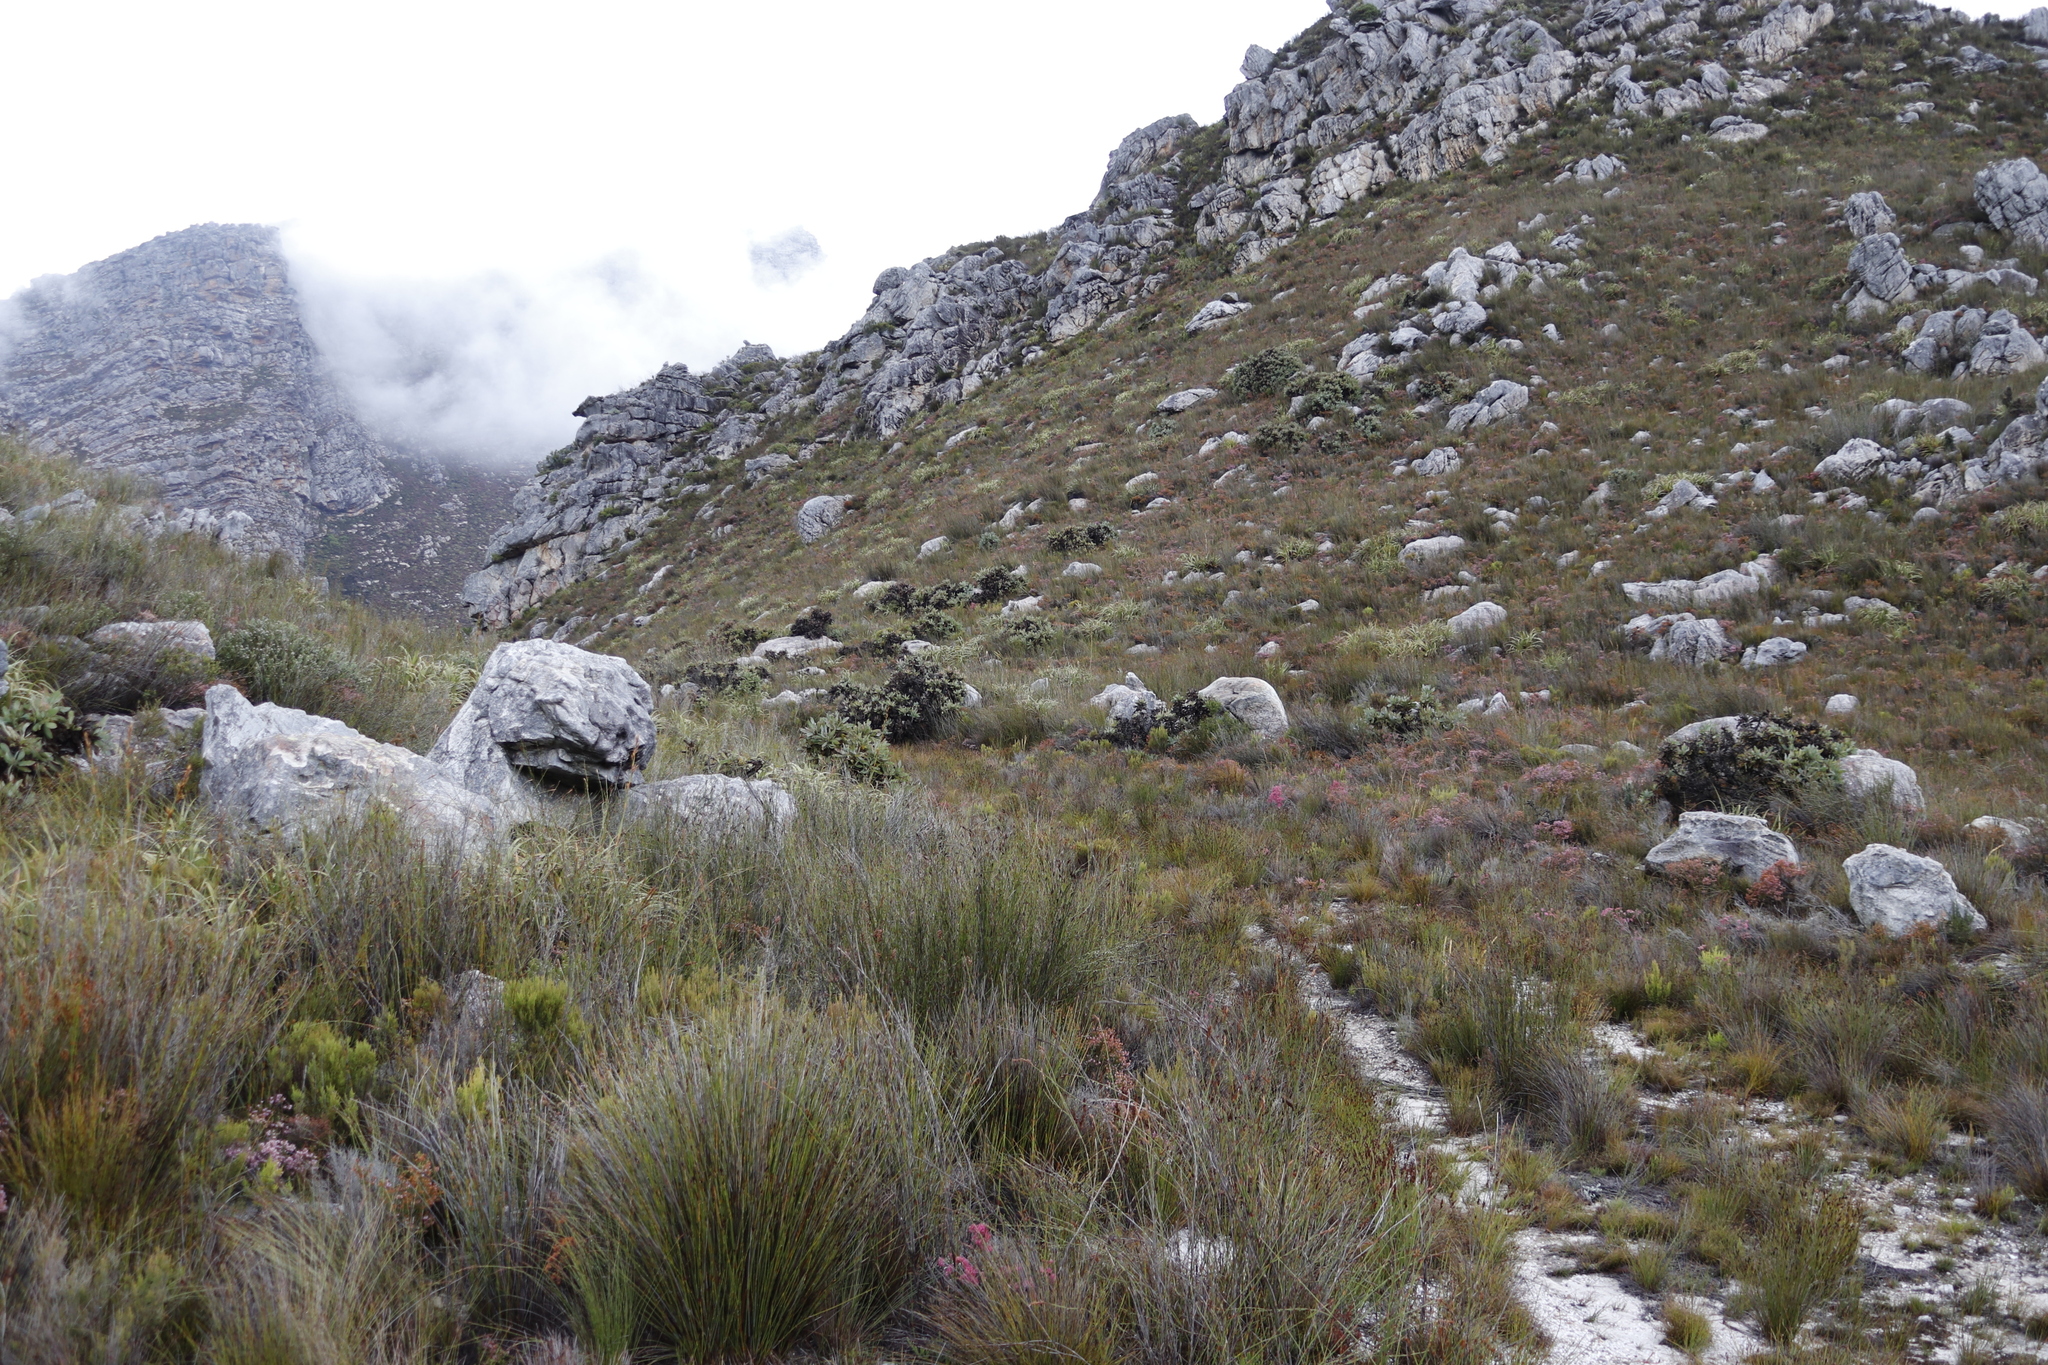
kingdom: Plantae
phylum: Tracheophyta
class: Magnoliopsida
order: Proteales
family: Proteaceae
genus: Protea
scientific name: Protea magnifica
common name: Bearded sugarbush
